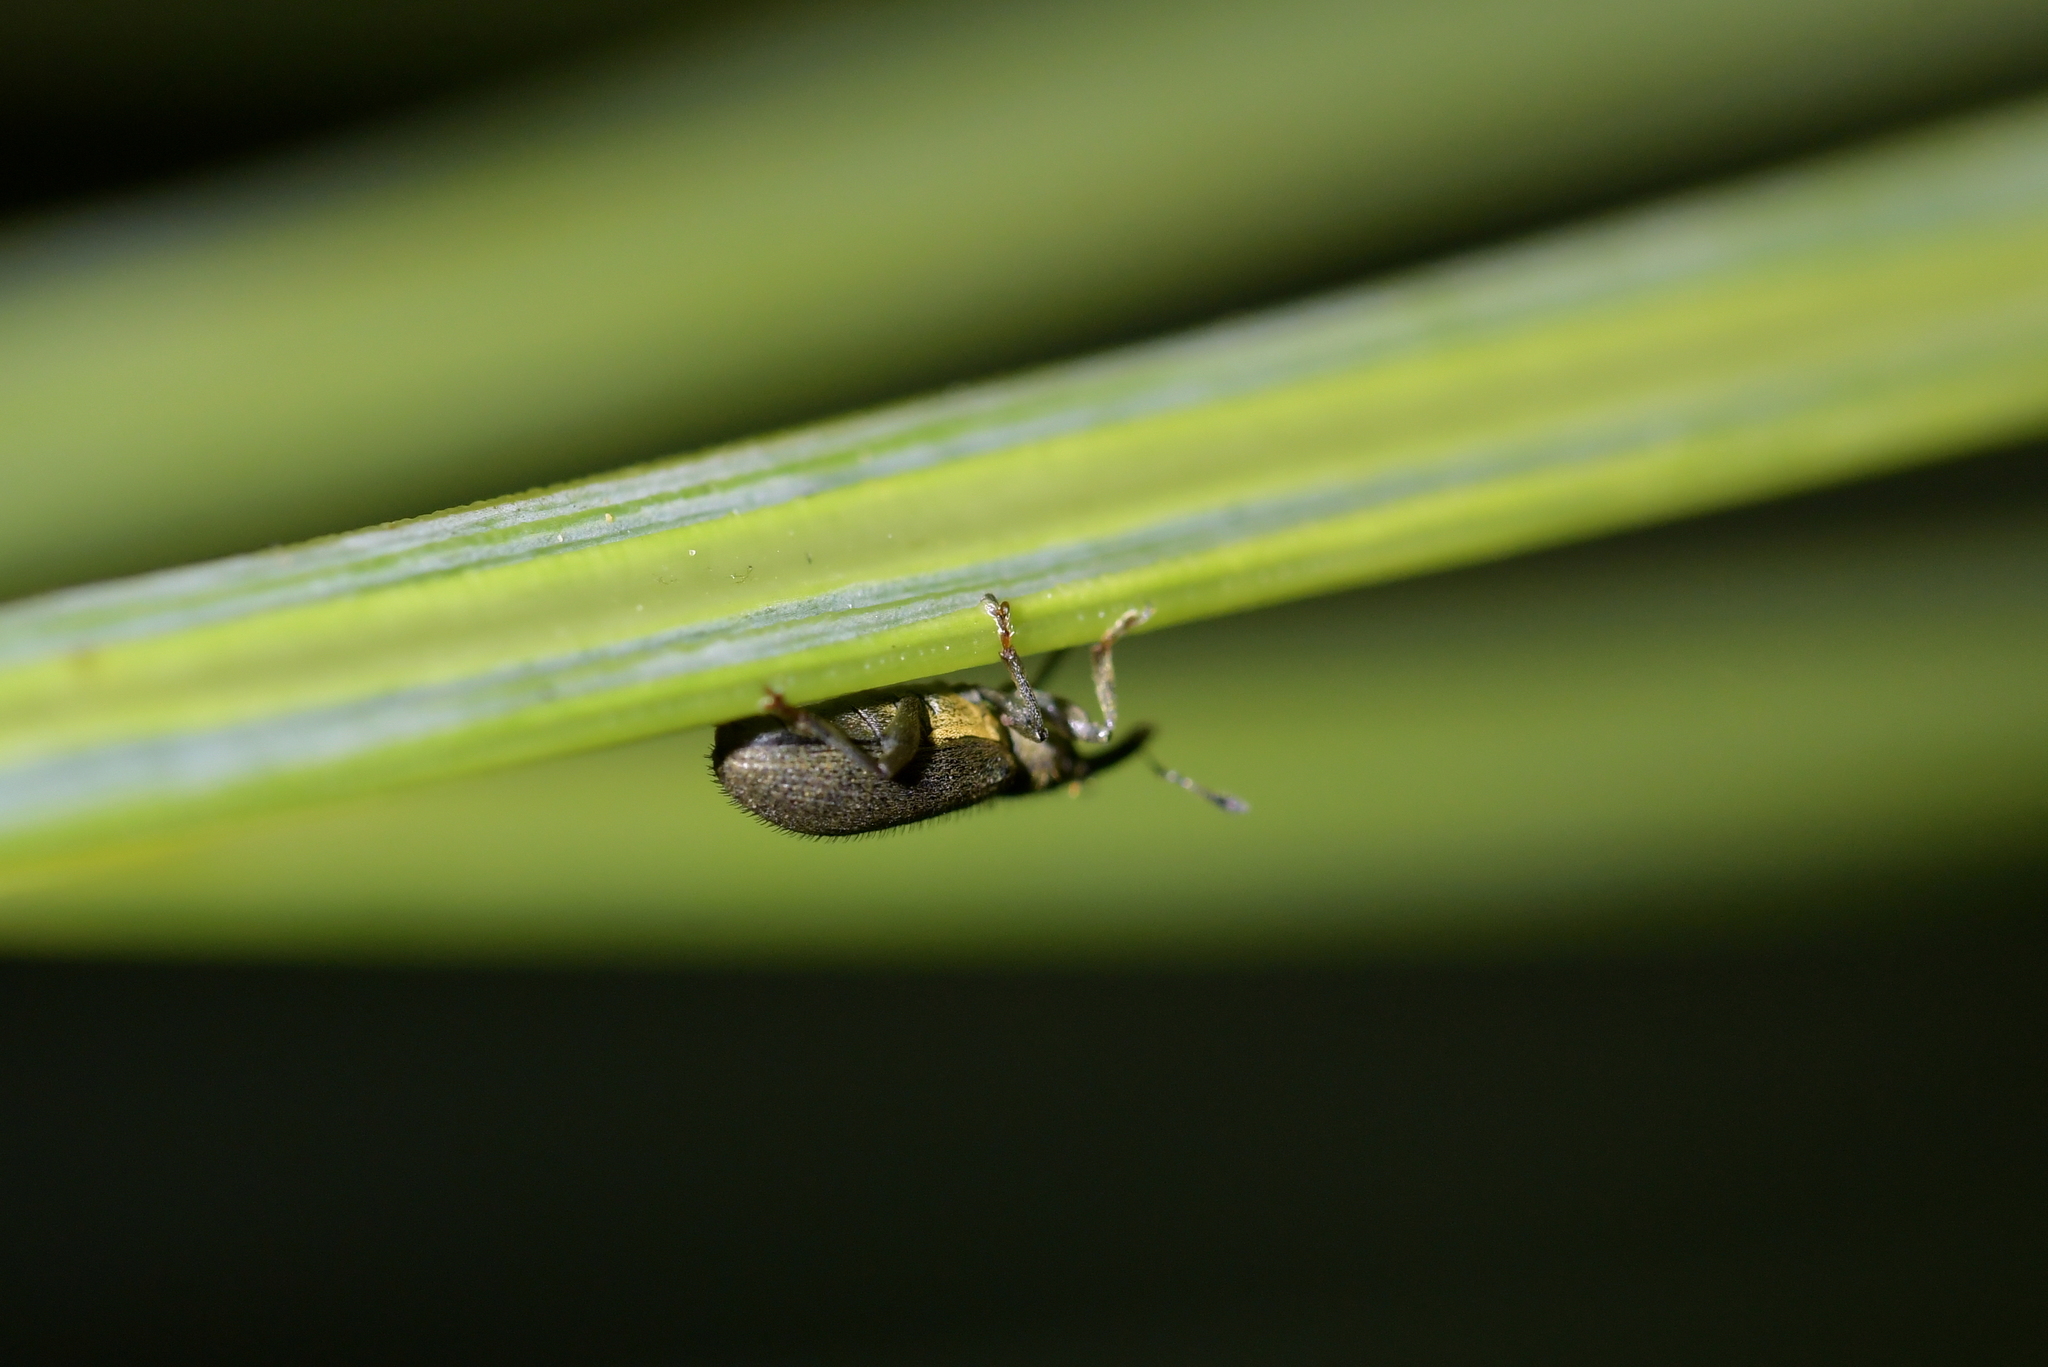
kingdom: Animalia
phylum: Arthropoda
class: Insecta
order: Coleoptera
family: Curculionidae
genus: Eugnomus
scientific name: Eugnomus durvillei
